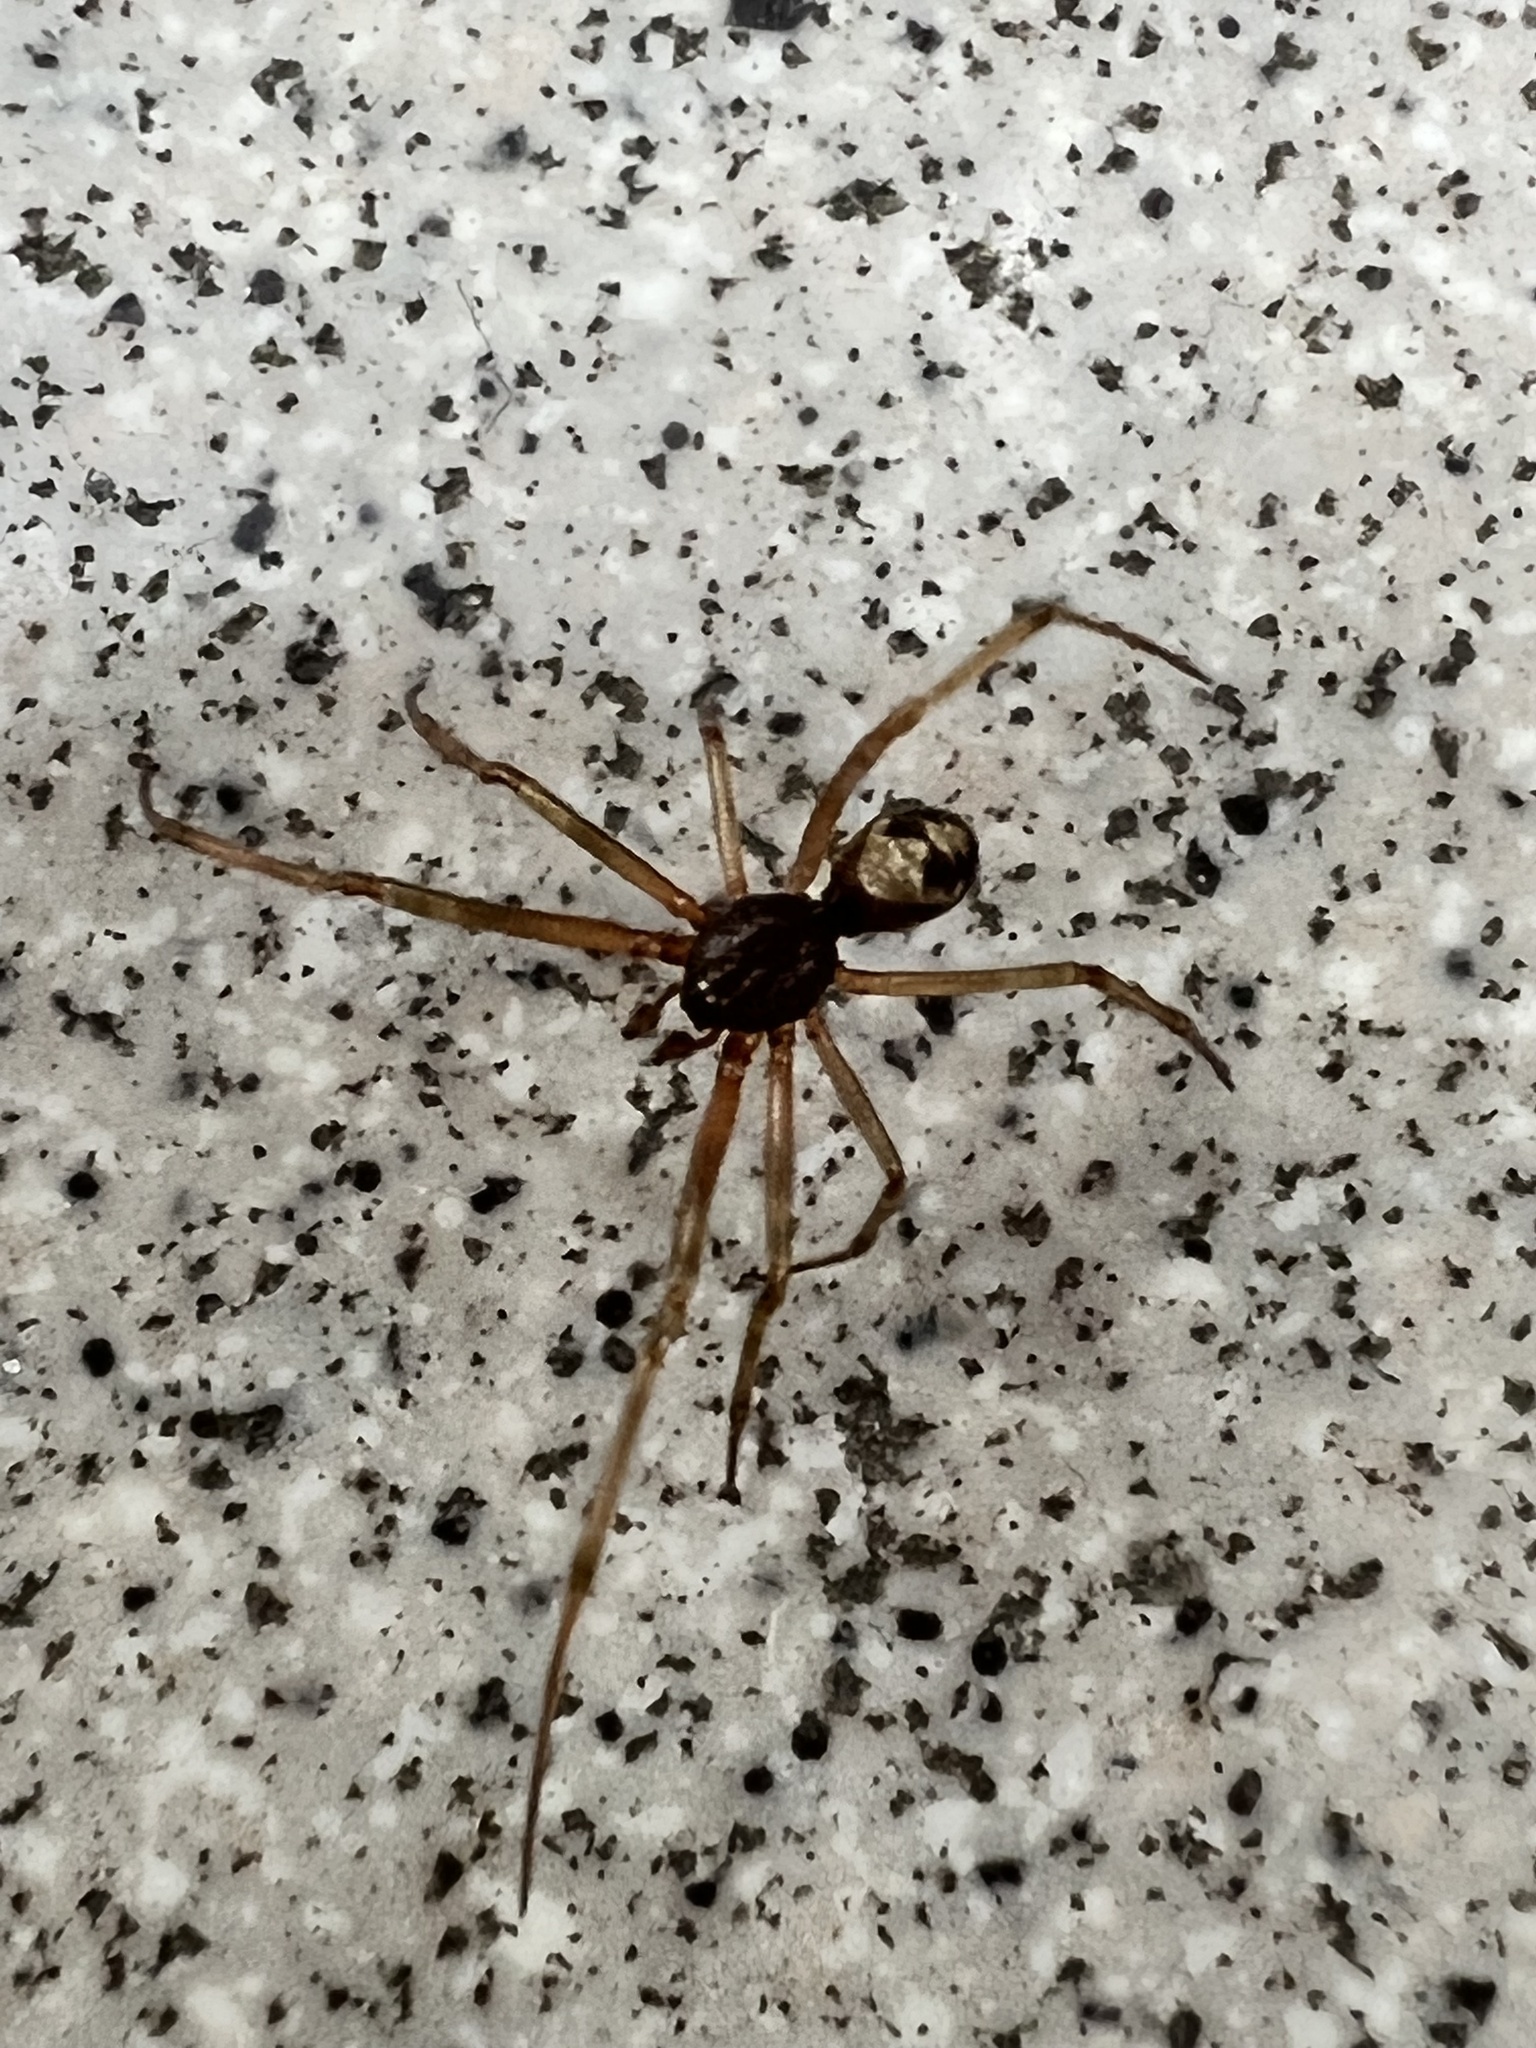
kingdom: Animalia
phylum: Arthropoda
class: Arachnida
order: Araneae
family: Theridiidae
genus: Steatoda
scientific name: Steatoda triangulosa
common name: Triangulate bud spider
